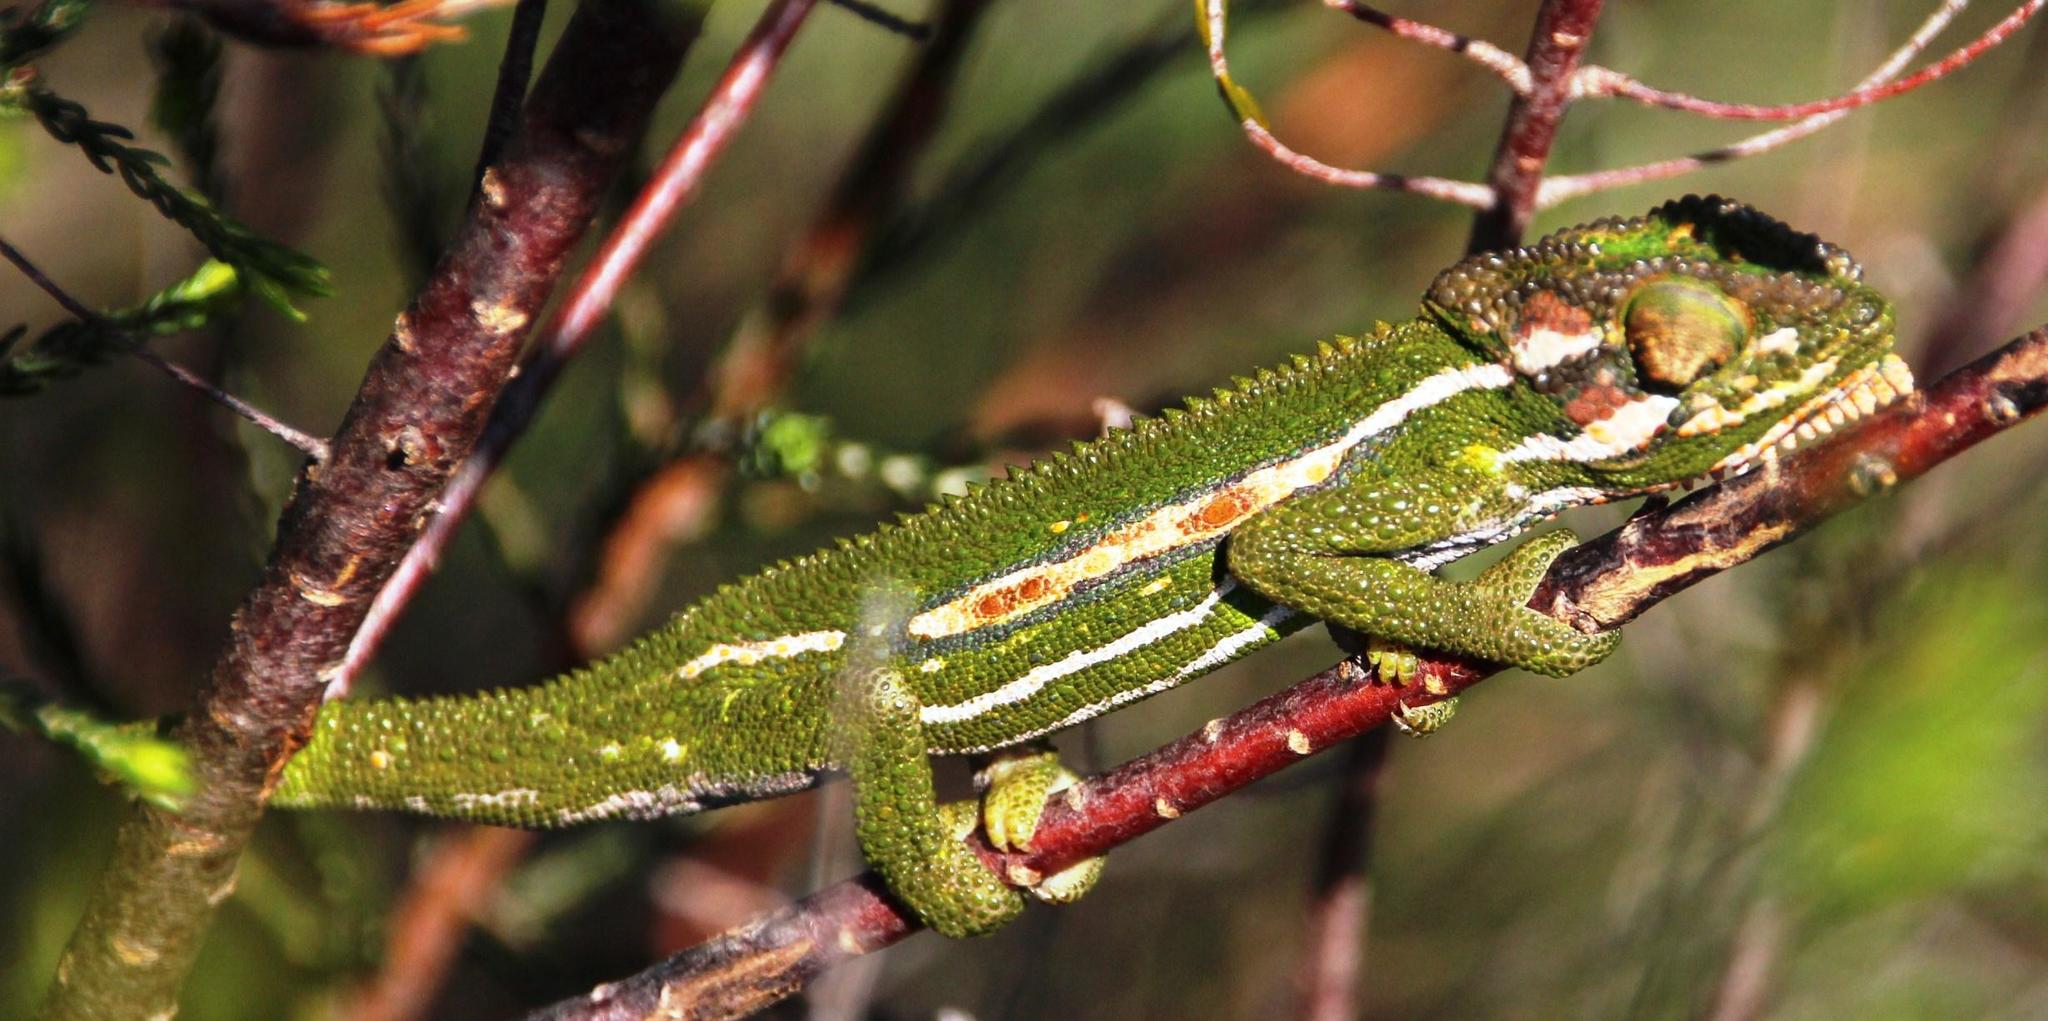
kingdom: Animalia
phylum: Chordata
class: Squamata
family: Chamaeleonidae
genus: Bradypodion
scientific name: Bradypodion pumilum
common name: Cape dwarf chameleon
